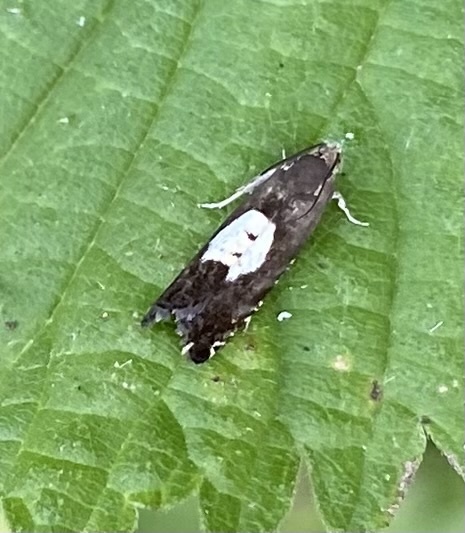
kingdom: Animalia
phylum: Arthropoda
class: Insecta
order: Lepidoptera
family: Tortricidae
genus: Pammene
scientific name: Pammene regiana
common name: Regal piercer
